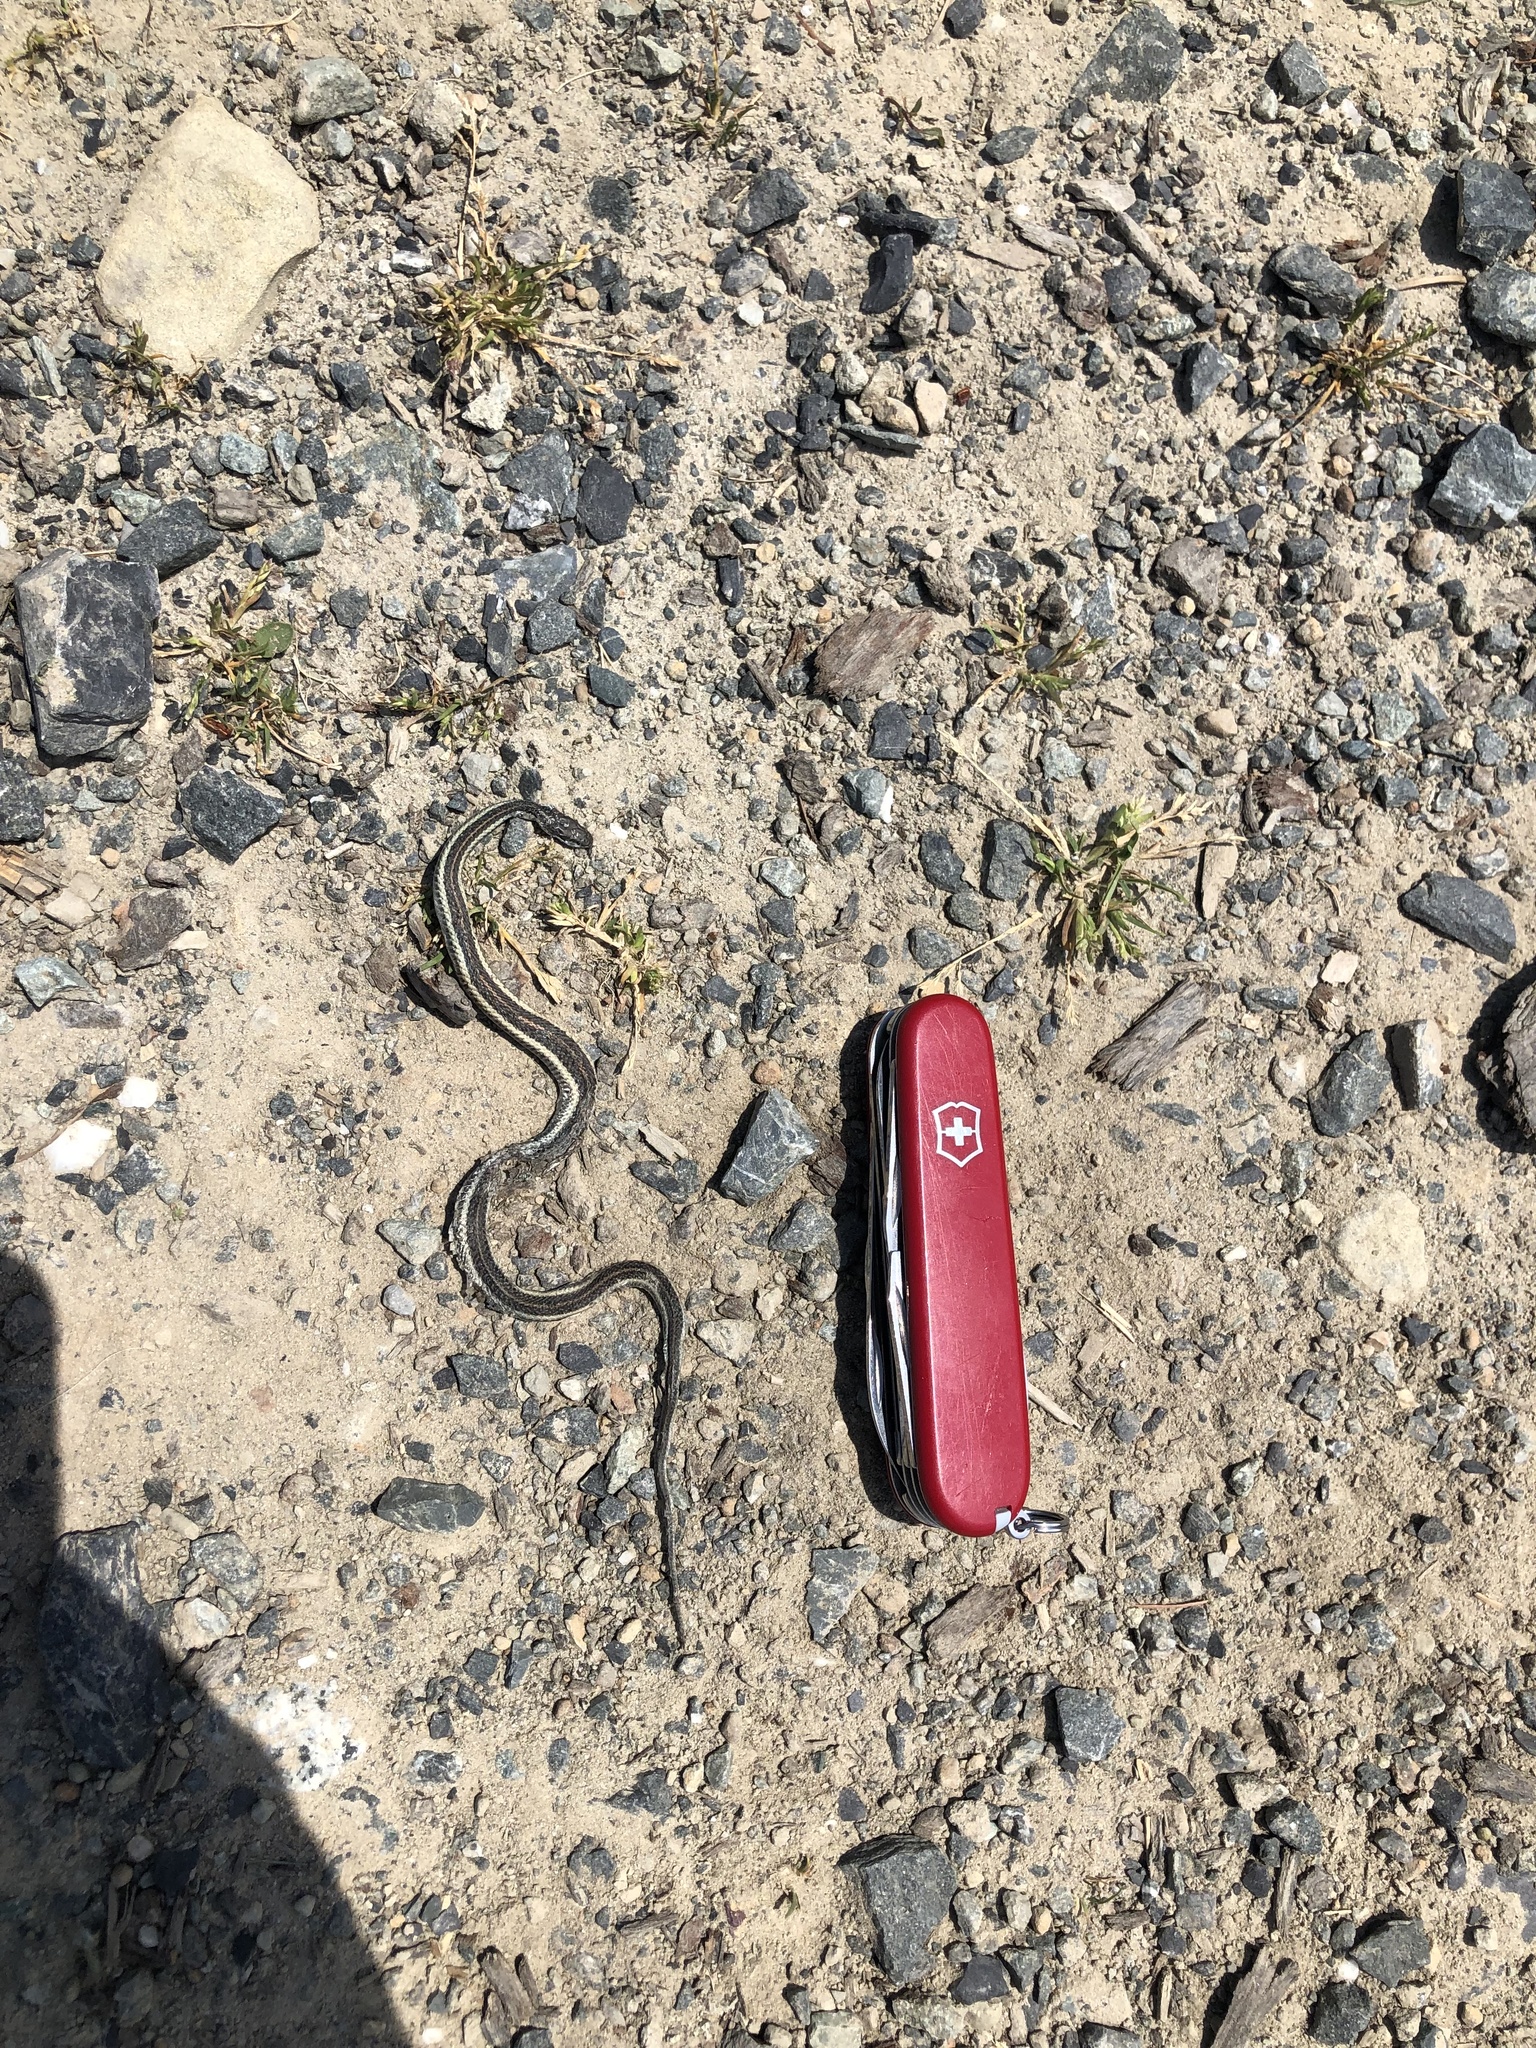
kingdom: Animalia
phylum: Chordata
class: Squamata
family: Colubridae
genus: Thamnophis
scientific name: Thamnophis ordinoides
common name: Northwestern garter snake
